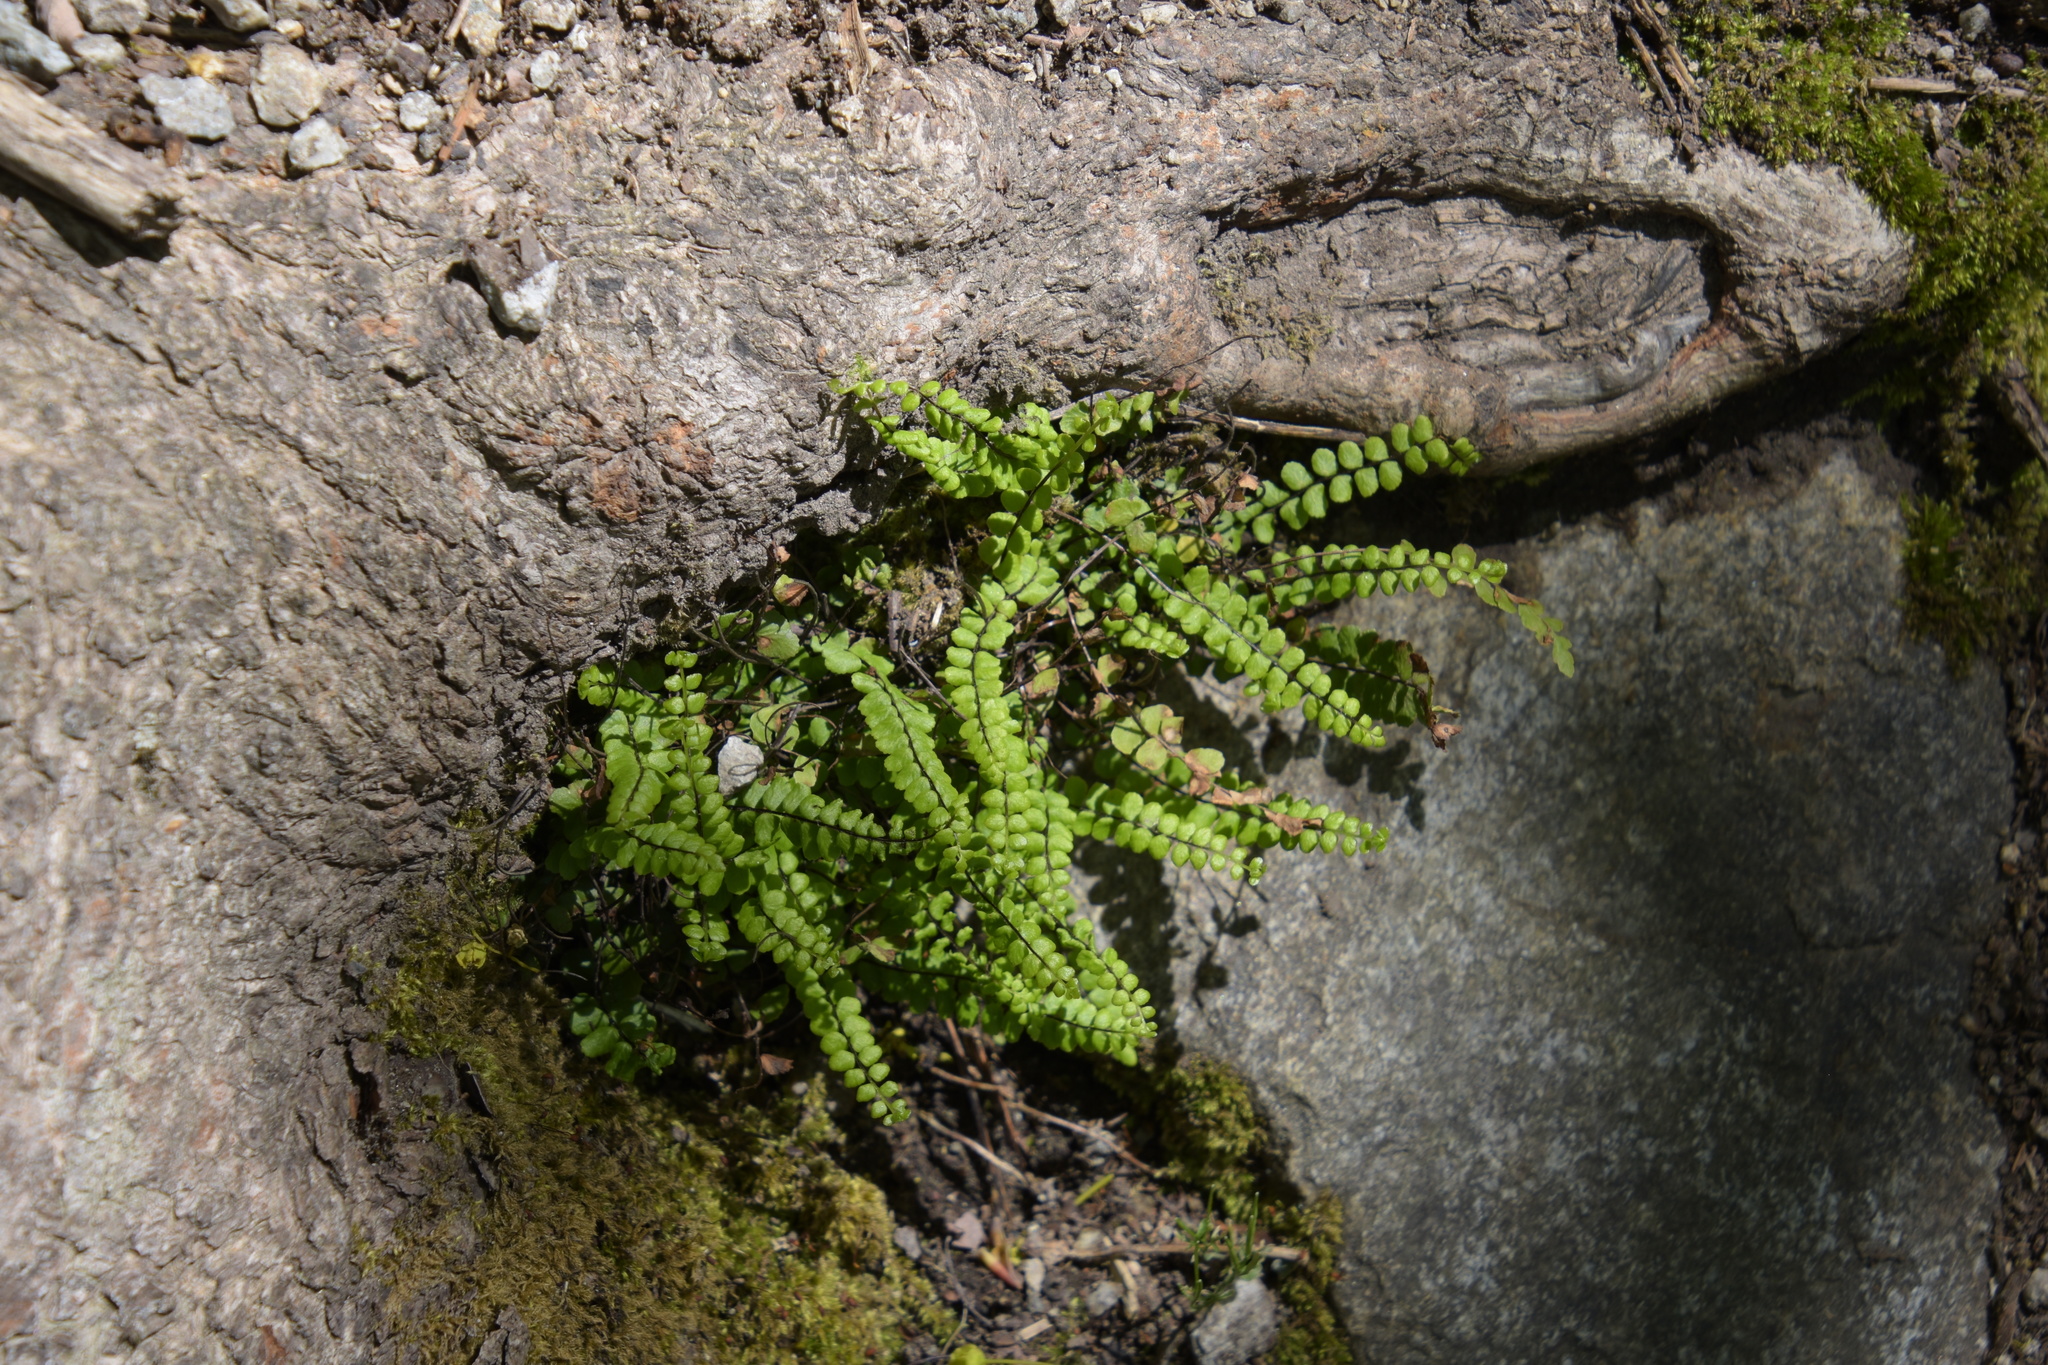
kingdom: Plantae
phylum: Tracheophyta
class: Polypodiopsida
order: Polypodiales
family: Aspleniaceae
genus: Asplenium
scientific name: Asplenium trichomanes
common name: Maidenhair spleenwort
